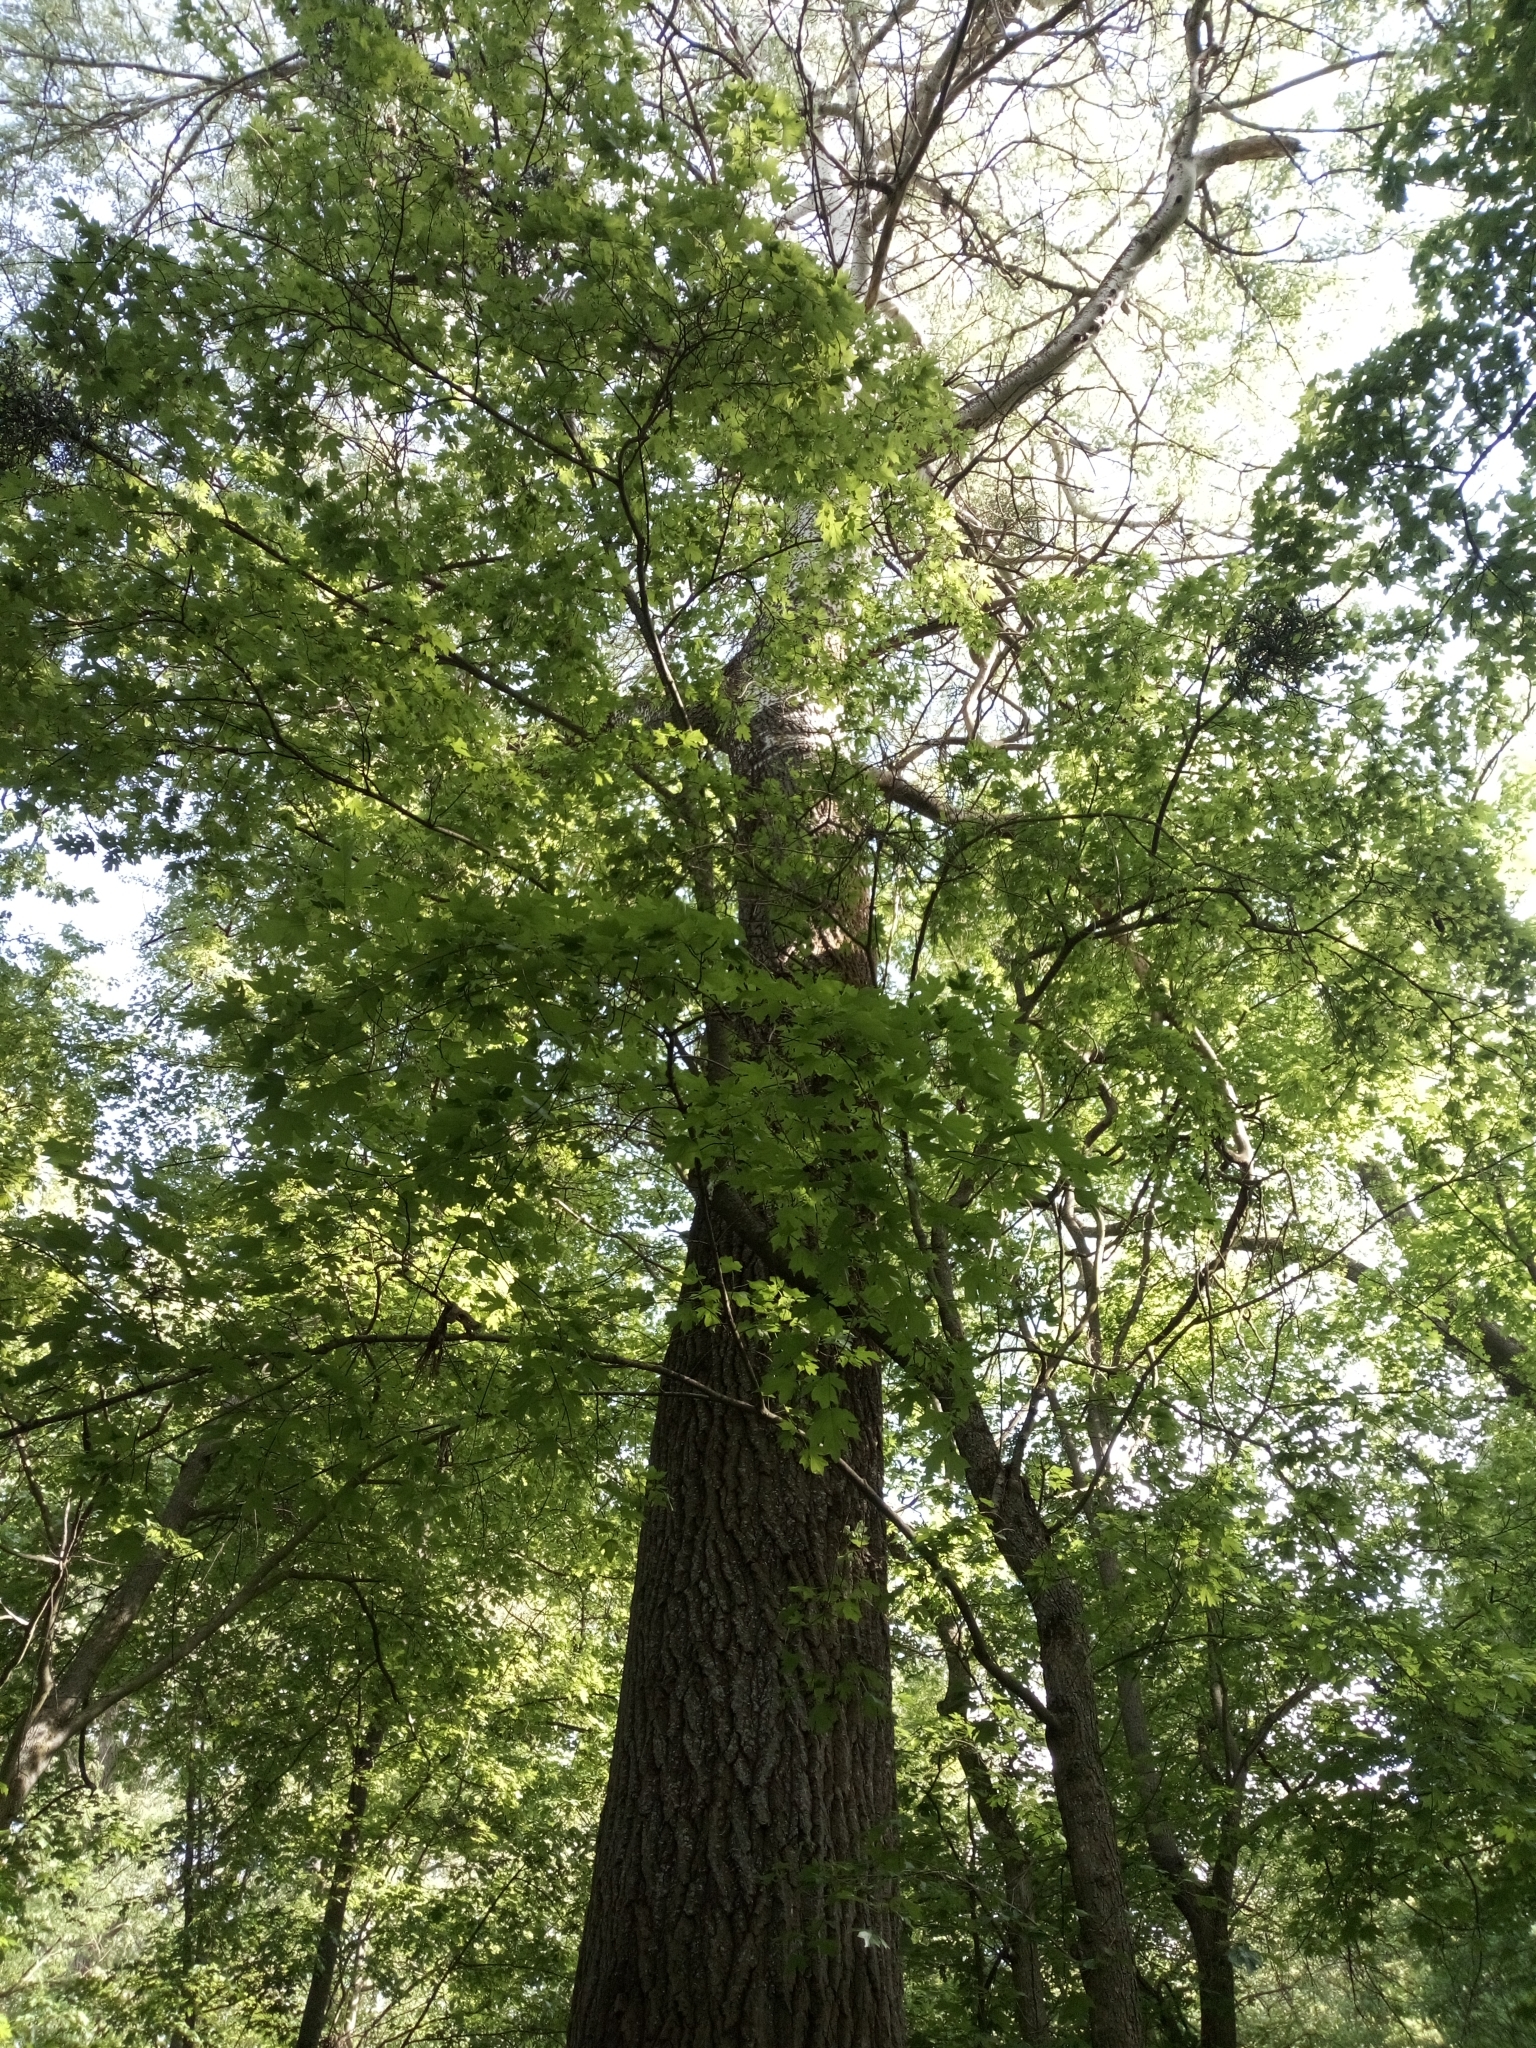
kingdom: Plantae
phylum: Tracheophyta
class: Magnoliopsida
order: Malpighiales
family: Salicaceae
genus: Populus
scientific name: Populus canescens
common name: Gray poplar
